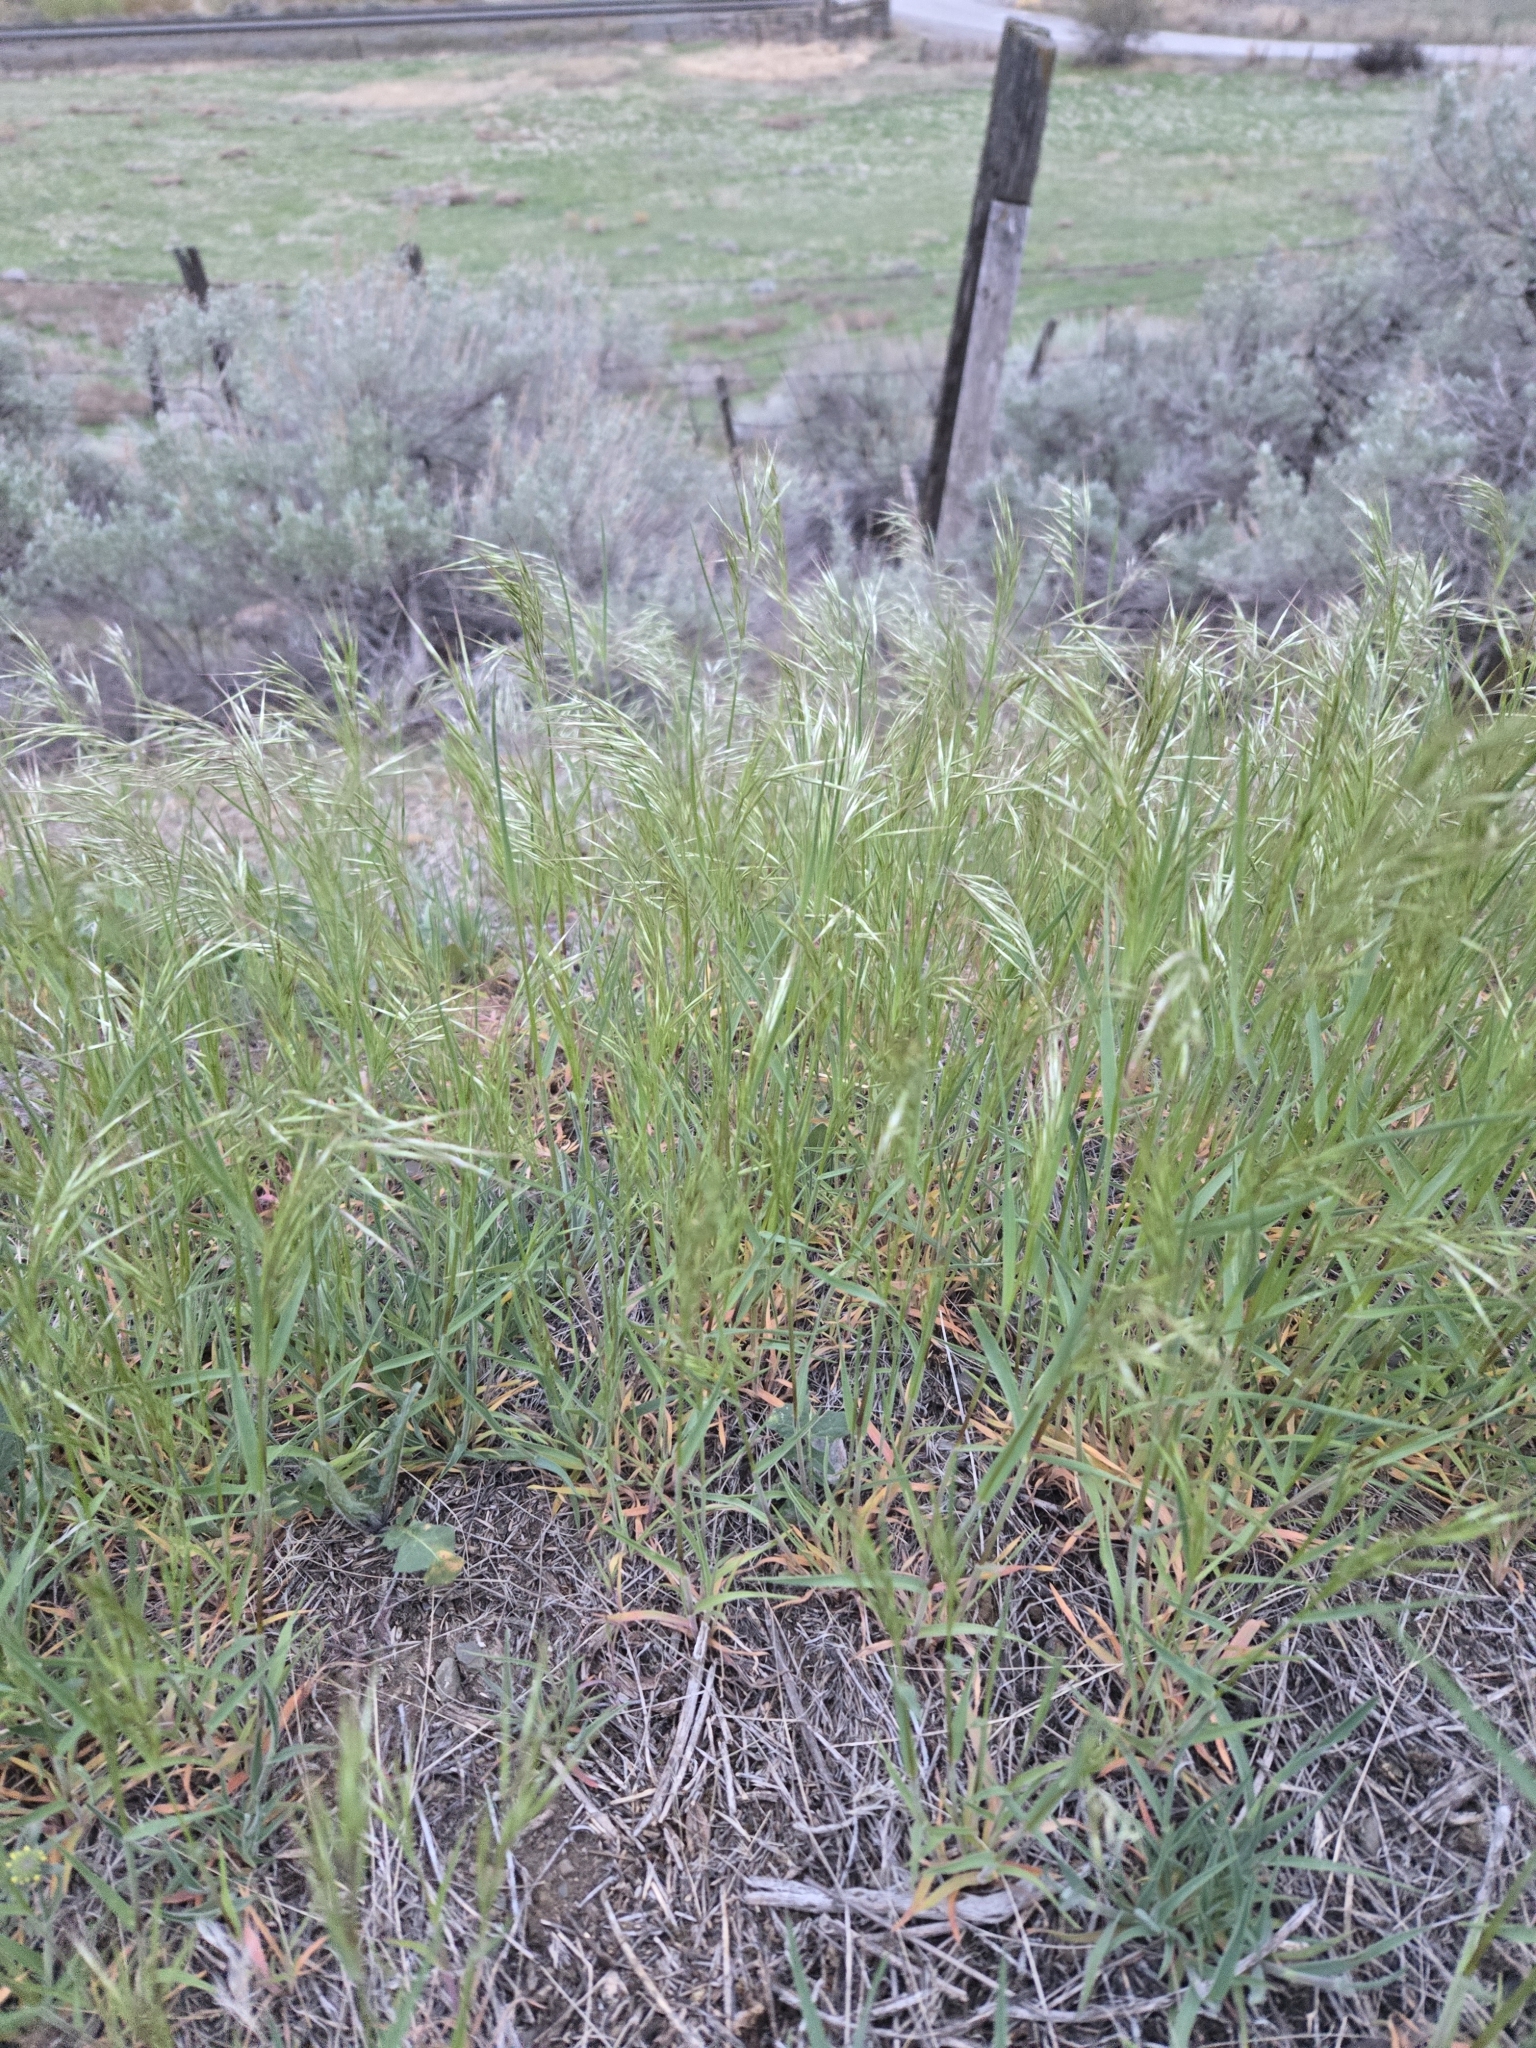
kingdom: Plantae
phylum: Tracheophyta
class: Liliopsida
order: Poales
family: Poaceae
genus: Bromus
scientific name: Bromus tectorum
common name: Cheatgrass
